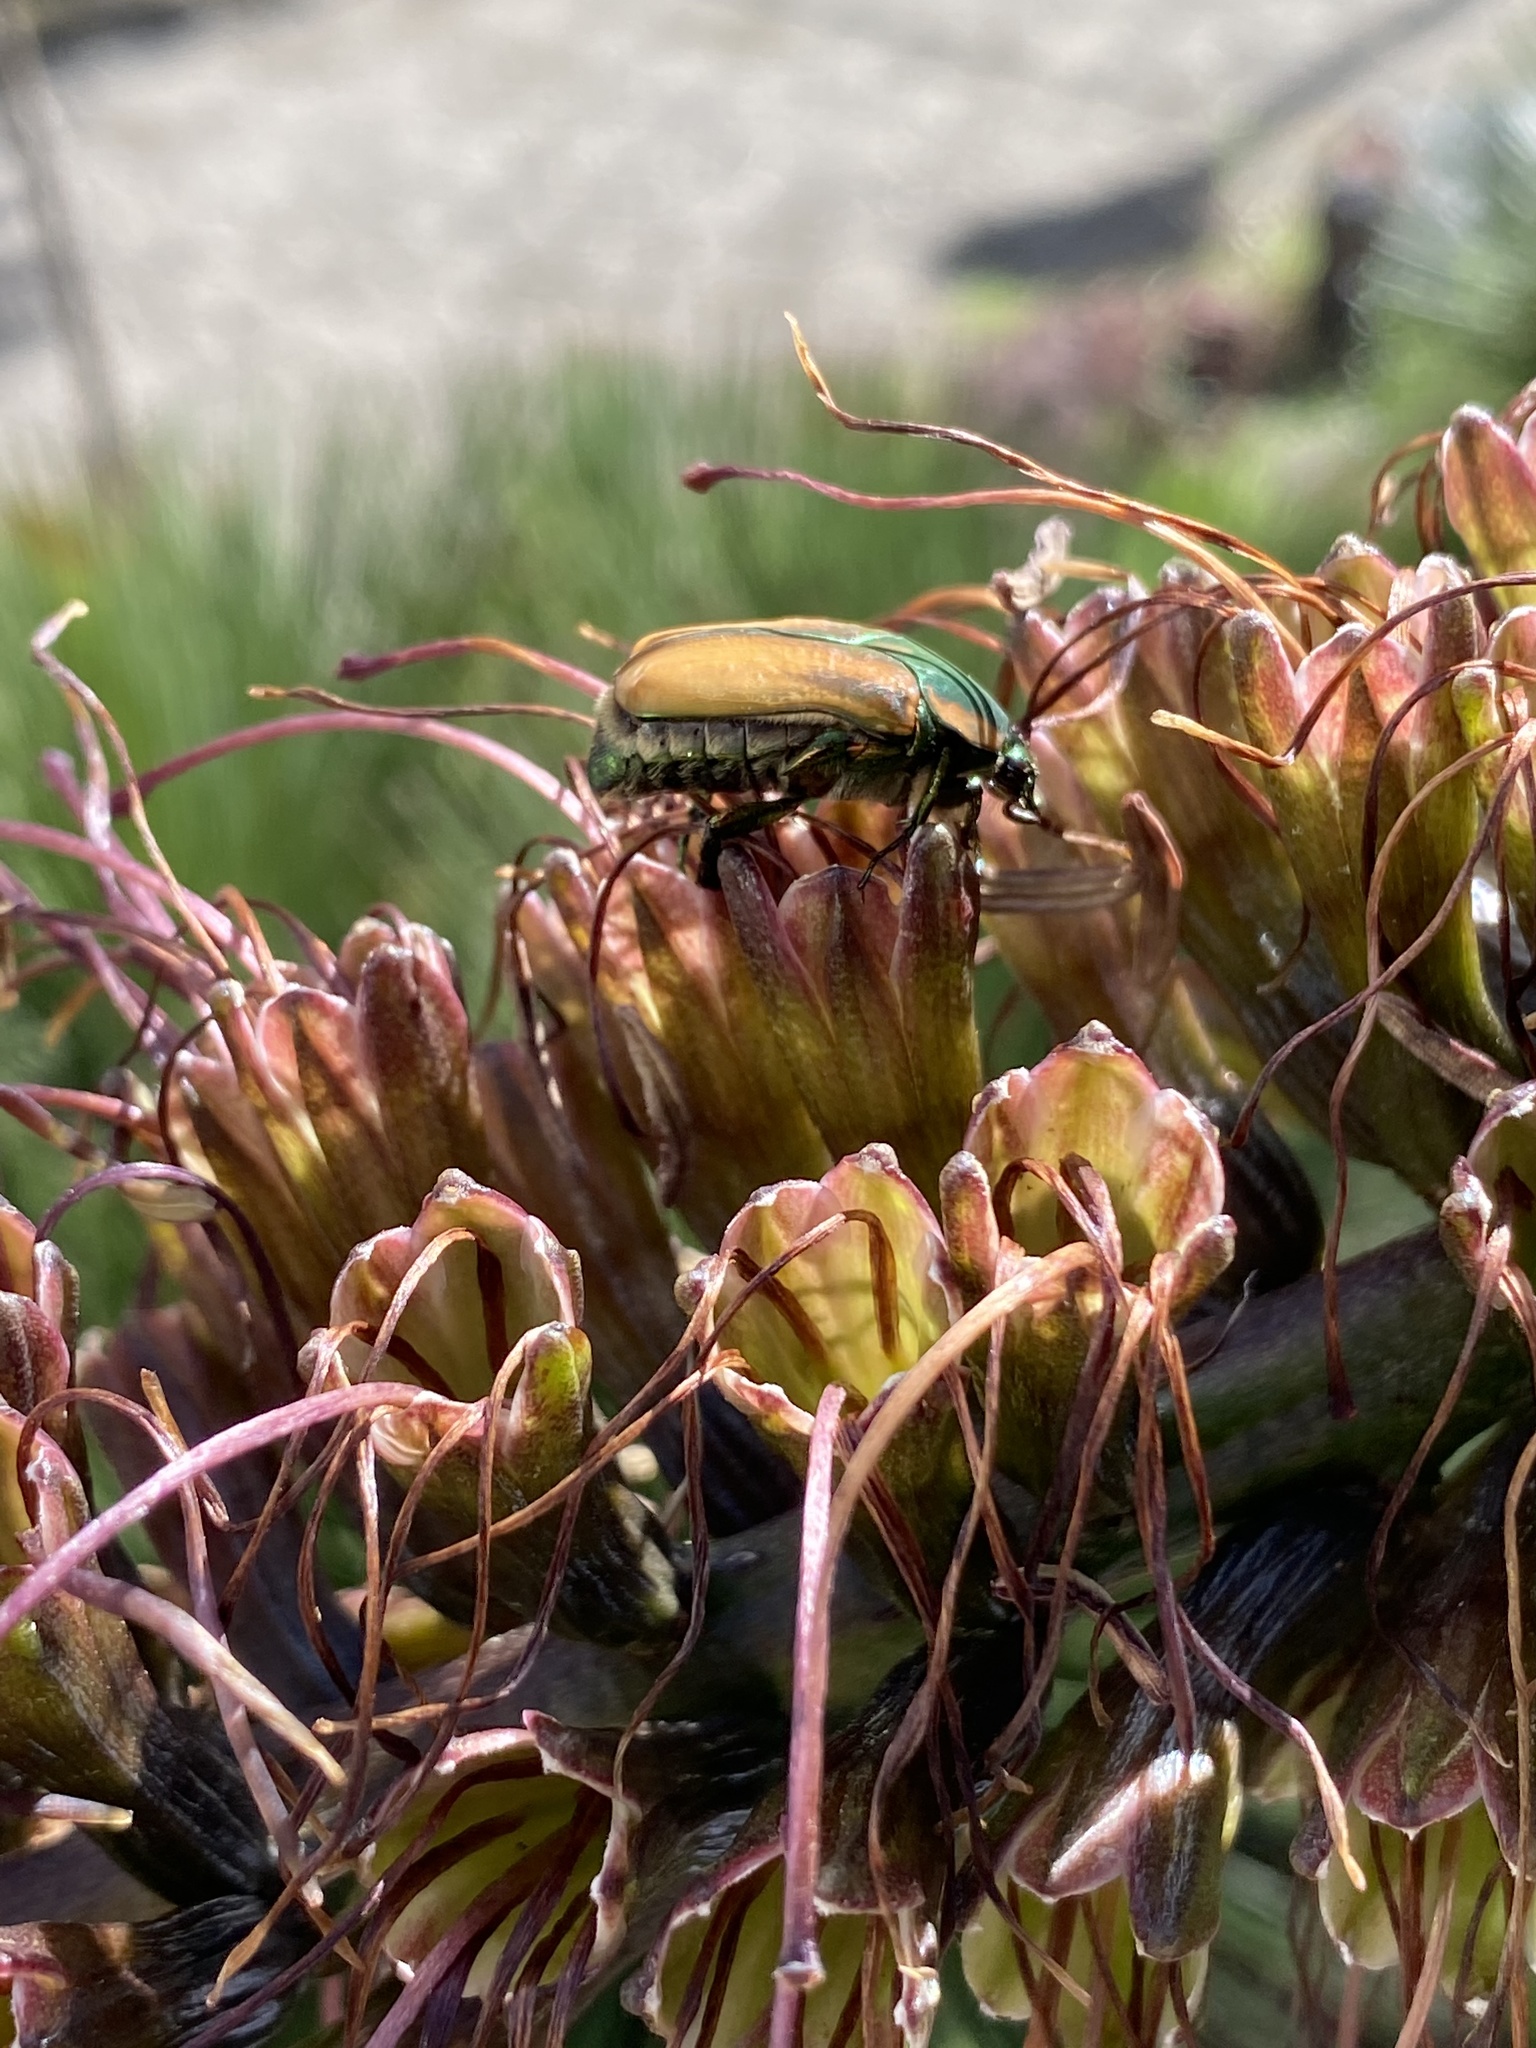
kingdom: Animalia
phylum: Arthropoda
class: Insecta
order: Coleoptera
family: Scarabaeidae
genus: Cotinis
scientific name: Cotinis mutabilis
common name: Figeater beetle
